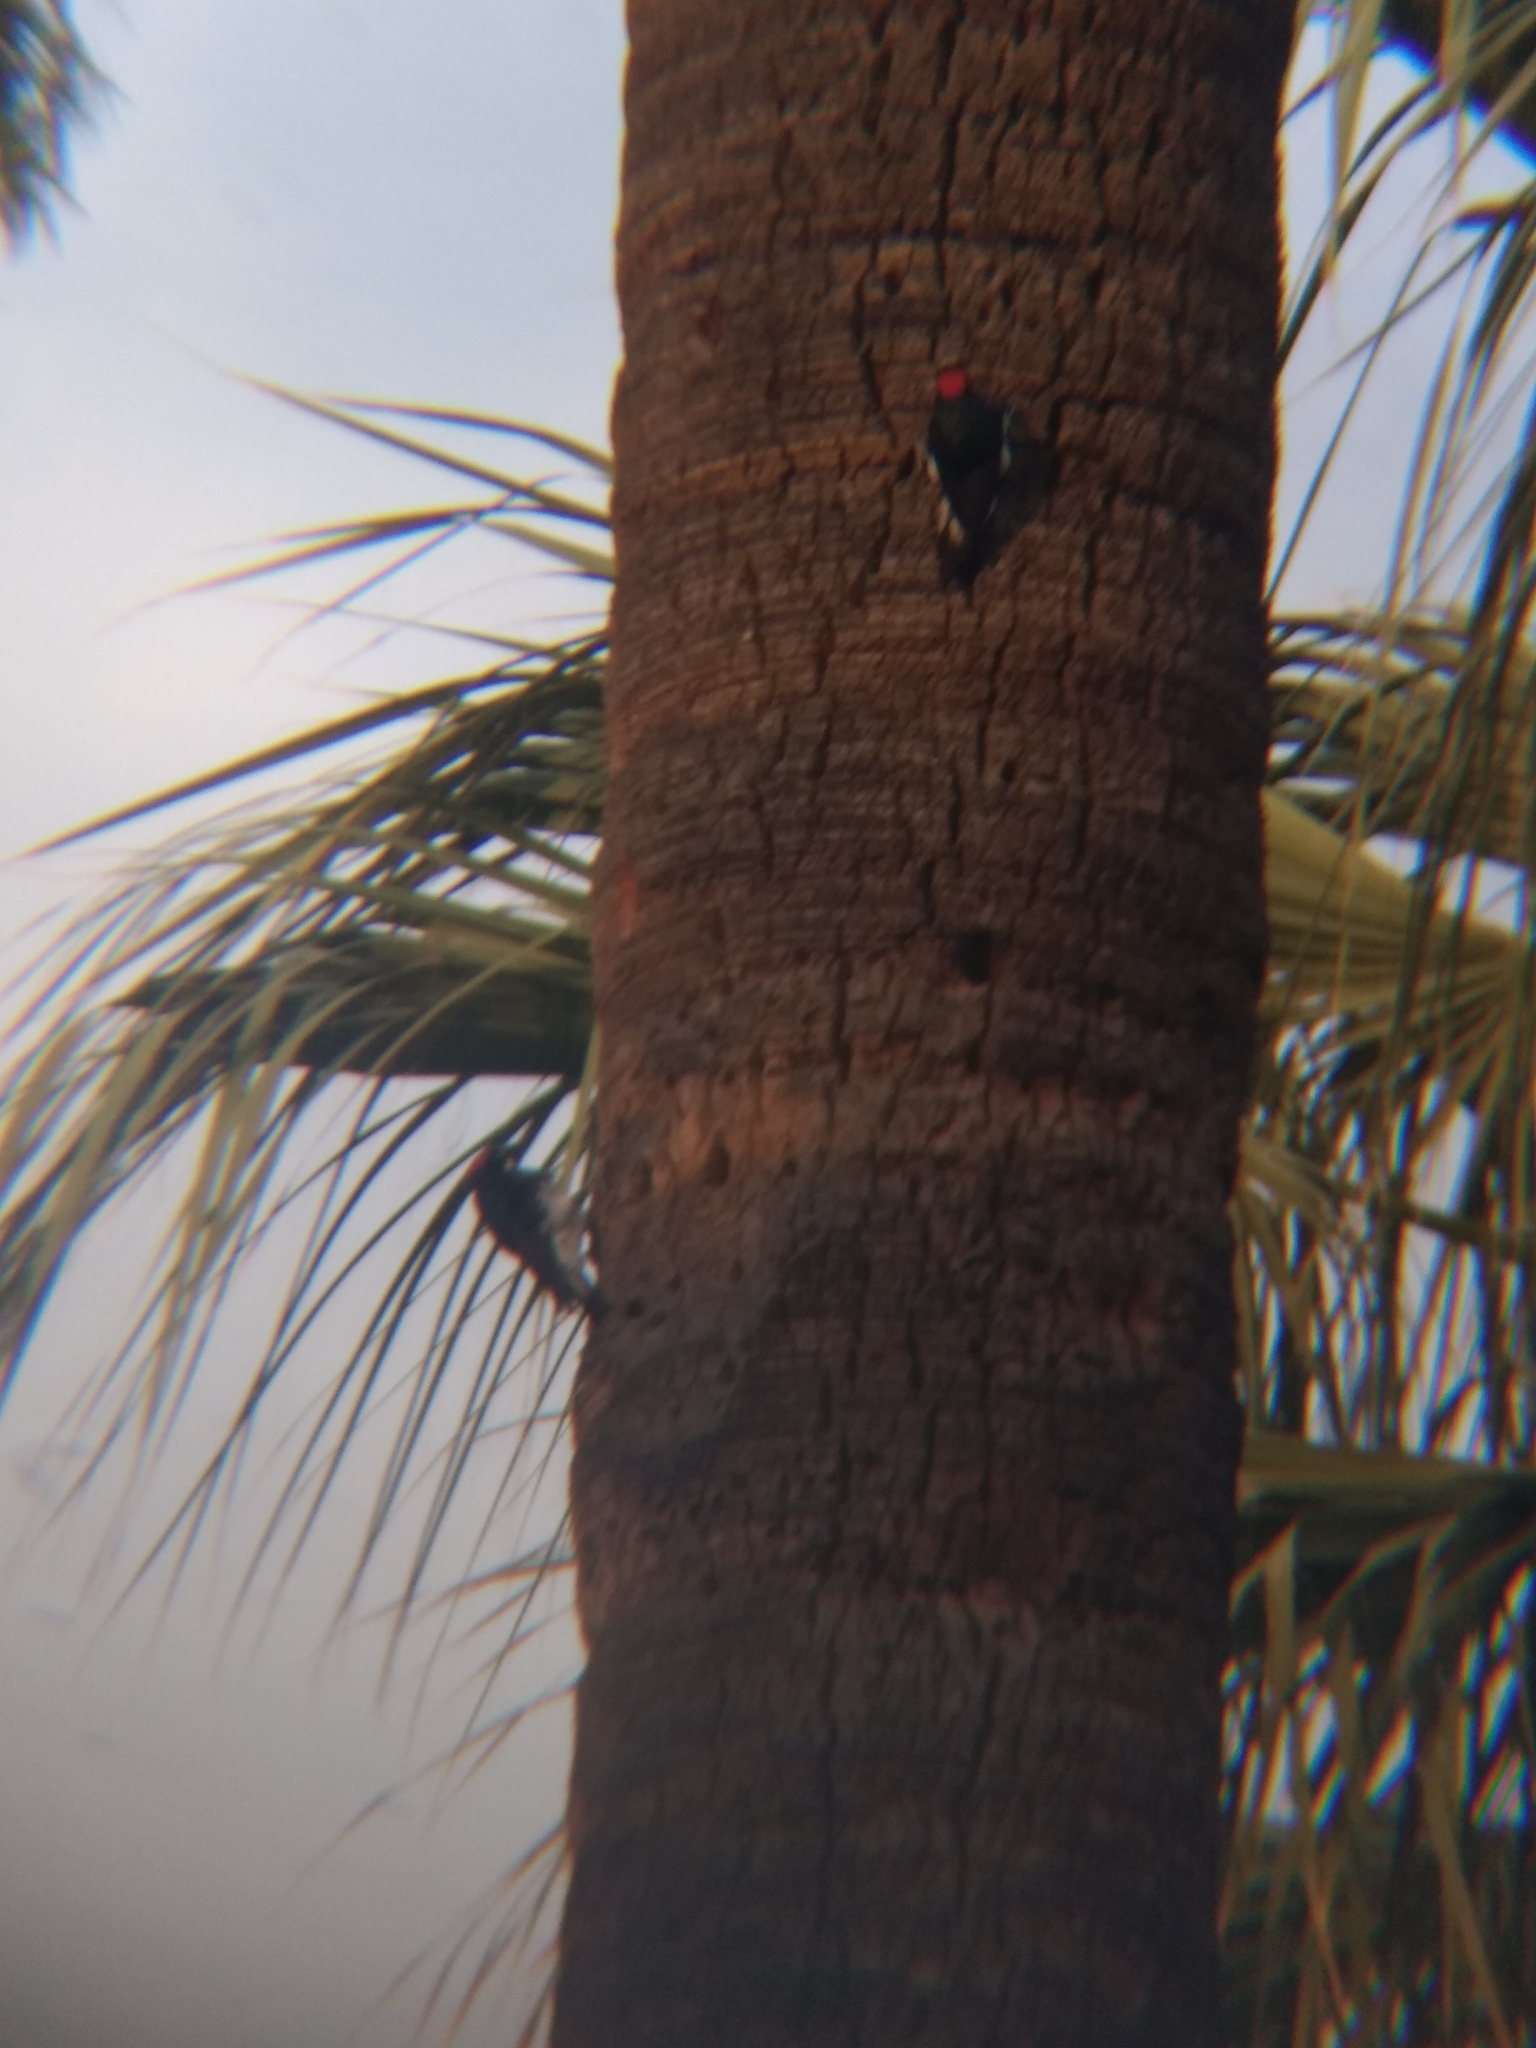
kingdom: Animalia
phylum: Chordata
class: Aves
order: Piciformes
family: Picidae
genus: Melanerpes
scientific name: Melanerpes formicivorus
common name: Acorn woodpecker
